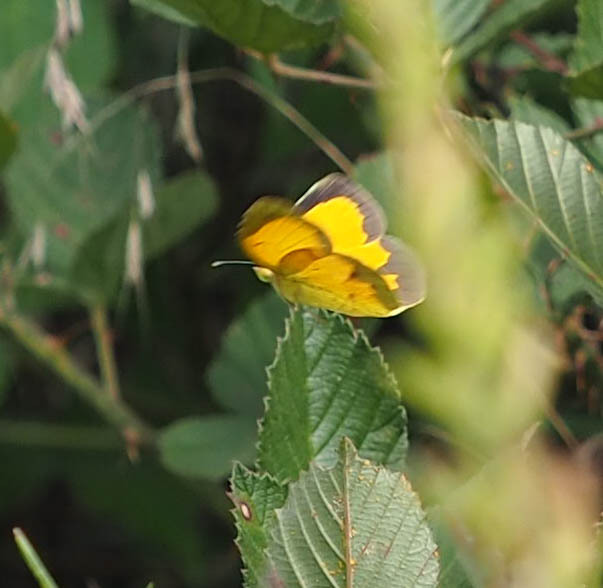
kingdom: Animalia
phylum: Arthropoda
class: Insecta
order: Lepidoptera
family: Pieridae
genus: Abaeis
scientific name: Abaeis nicippe
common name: Sleepy orange
